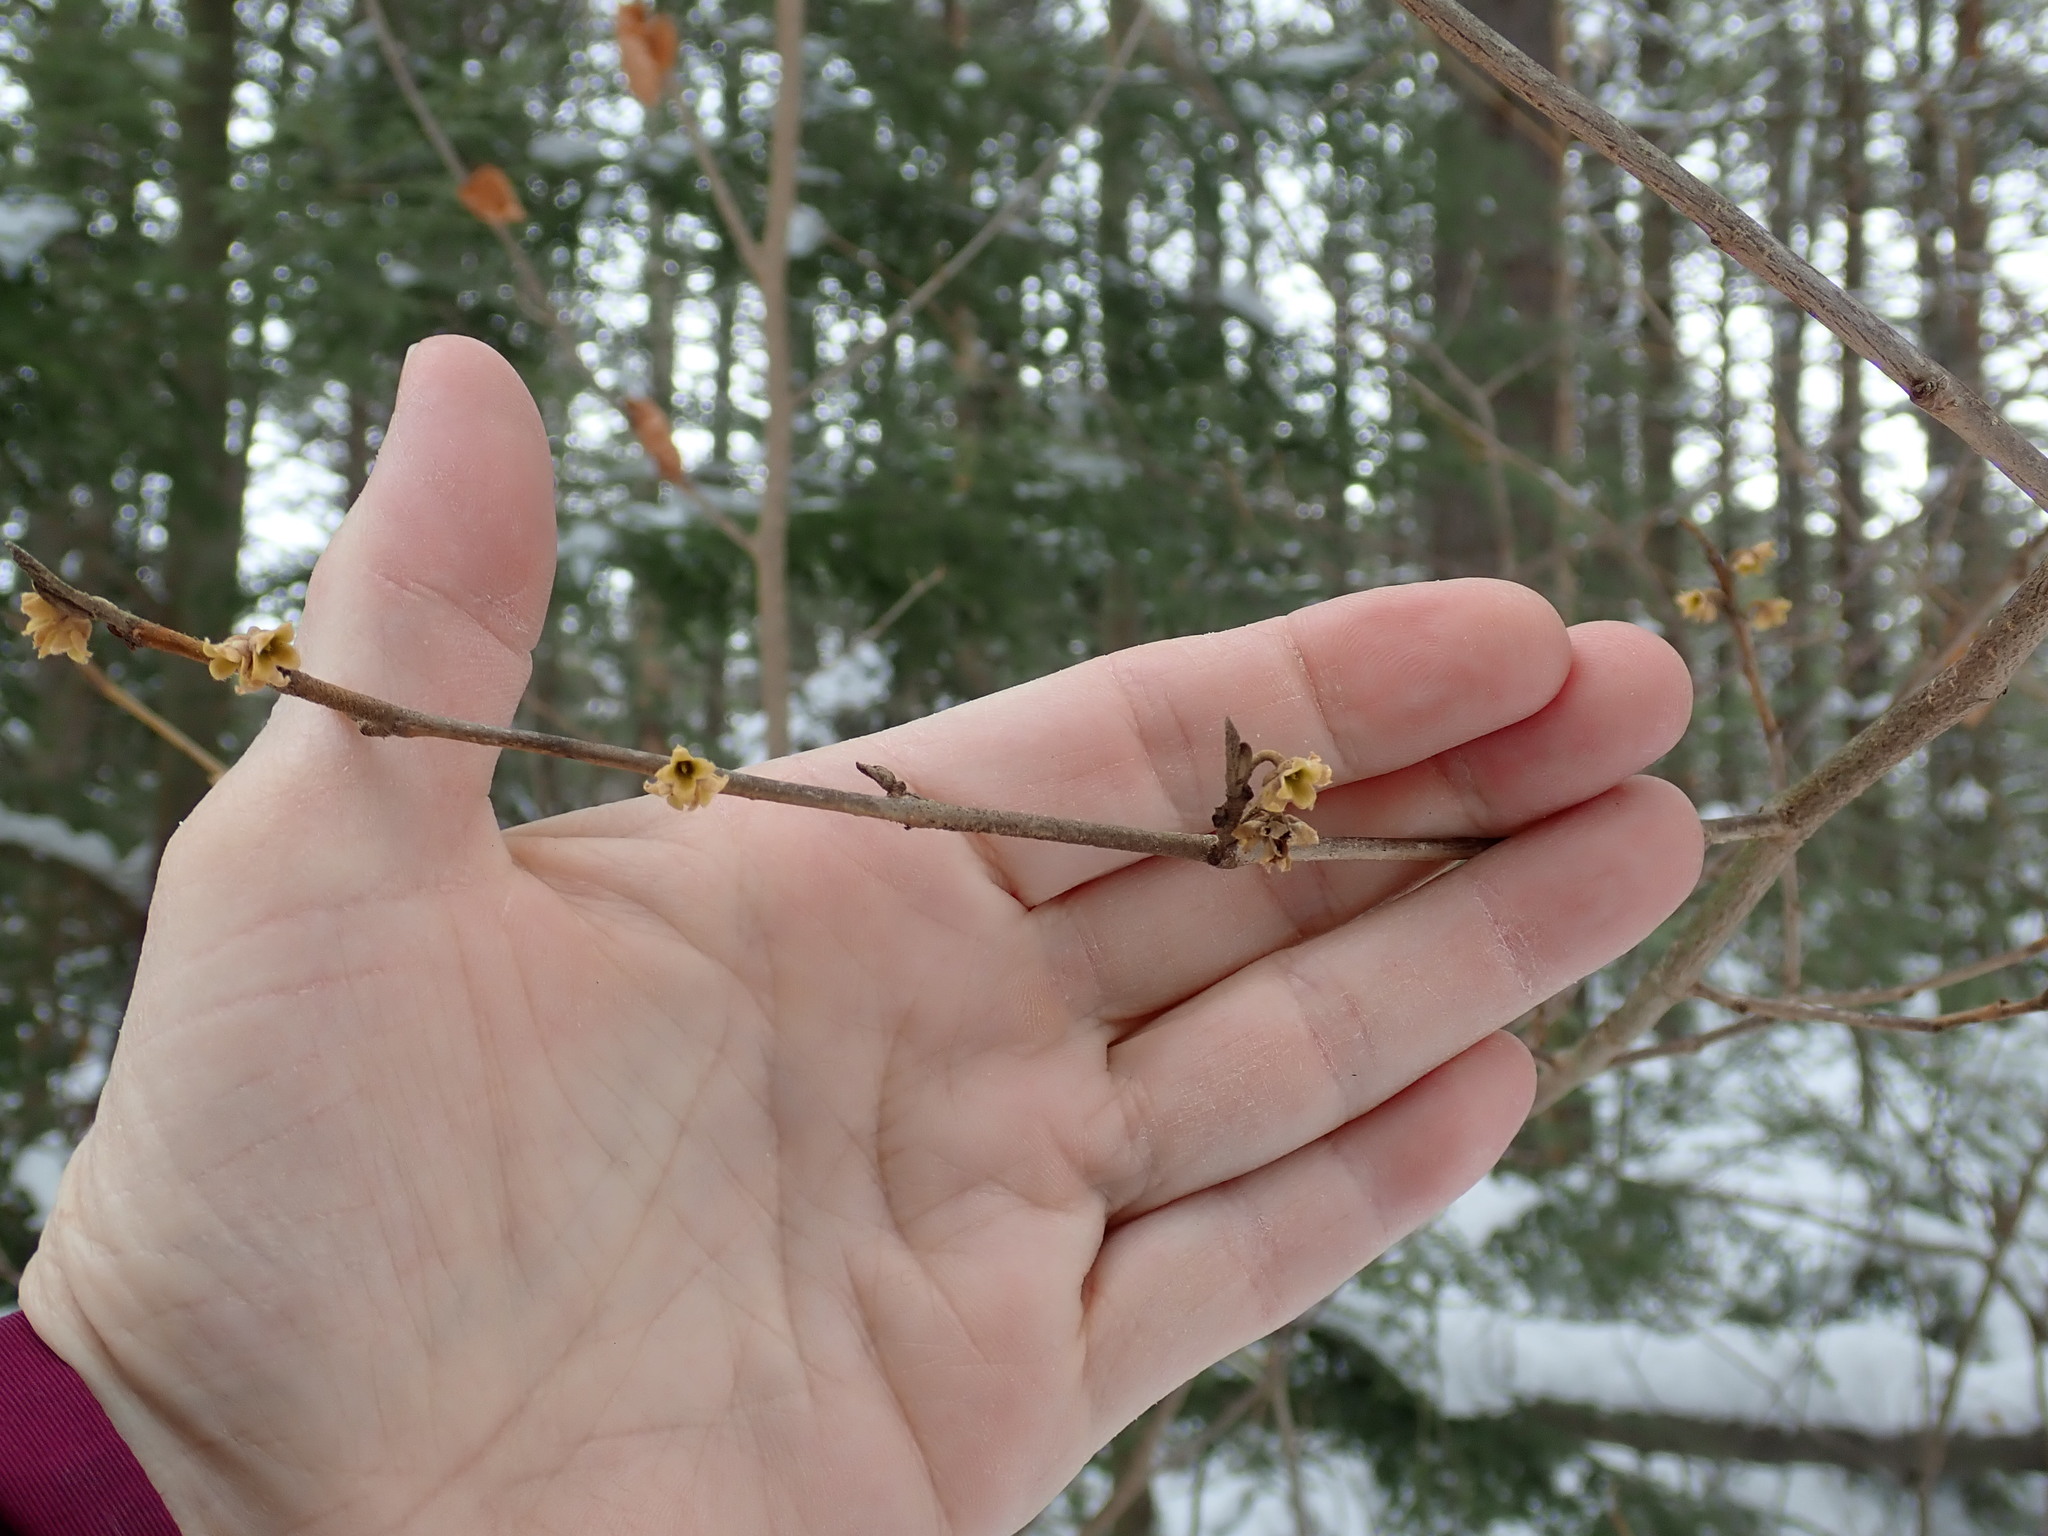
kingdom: Plantae
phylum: Tracheophyta
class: Magnoliopsida
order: Saxifragales
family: Hamamelidaceae
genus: Hamamelis
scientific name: Hamamelis virginiana
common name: Witch-hazel
